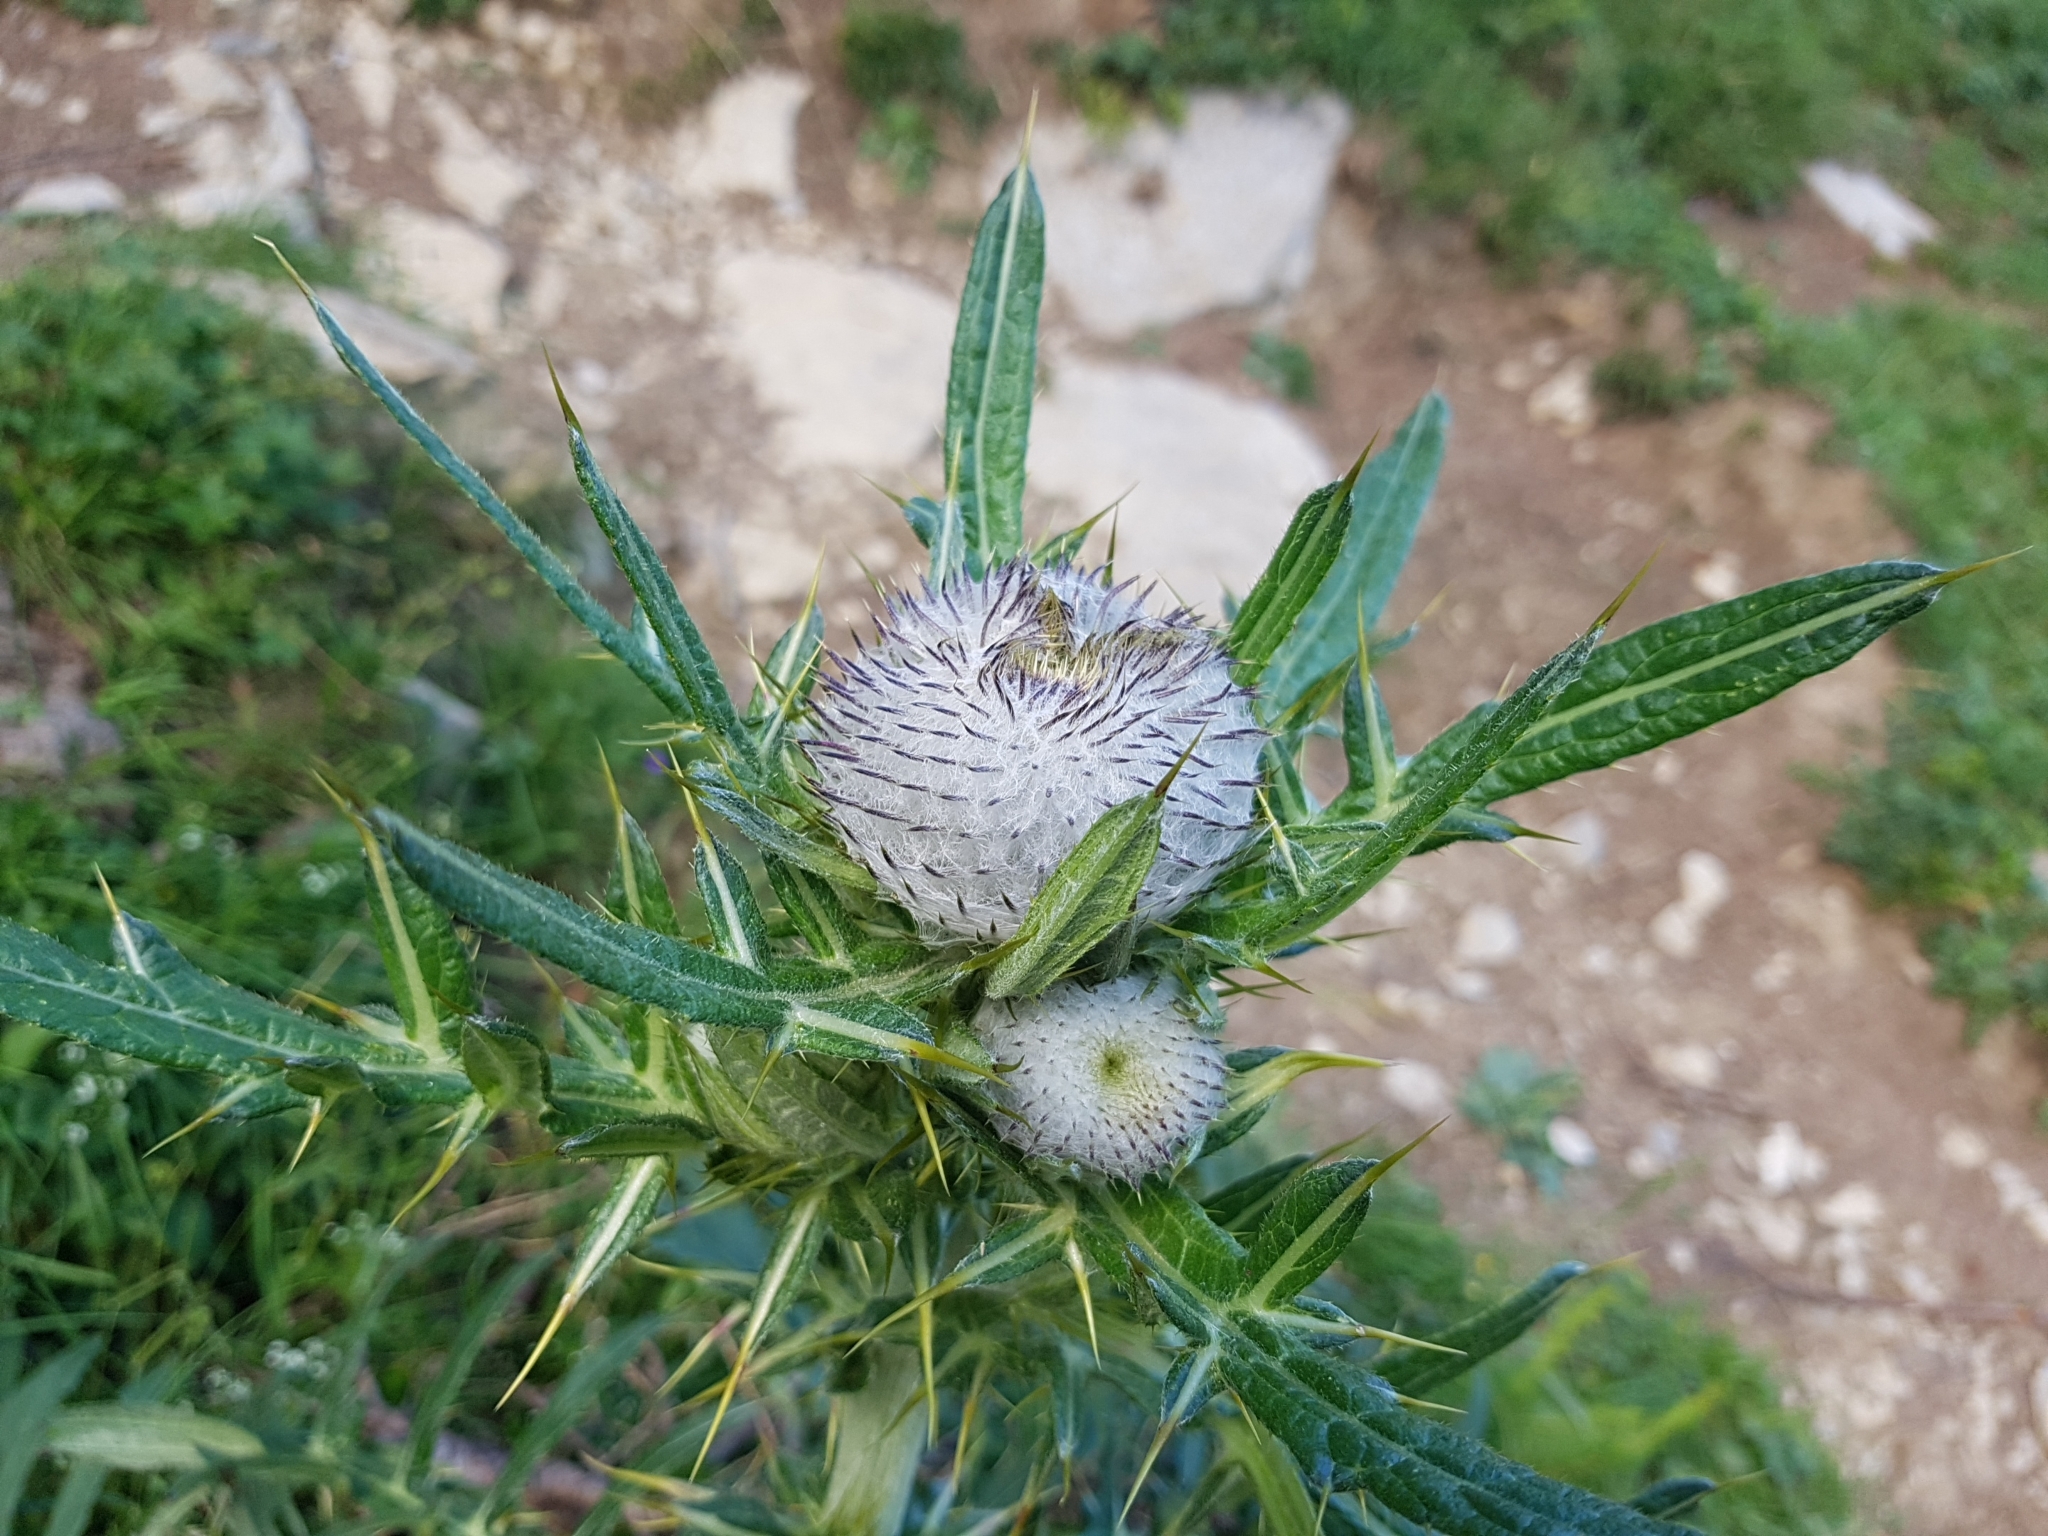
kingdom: Plantae
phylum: Tracheophyta
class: Magnoliopsida
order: Asterales
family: Asteraceae
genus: Lophiolepis
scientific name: Lophiolepis eriophora
